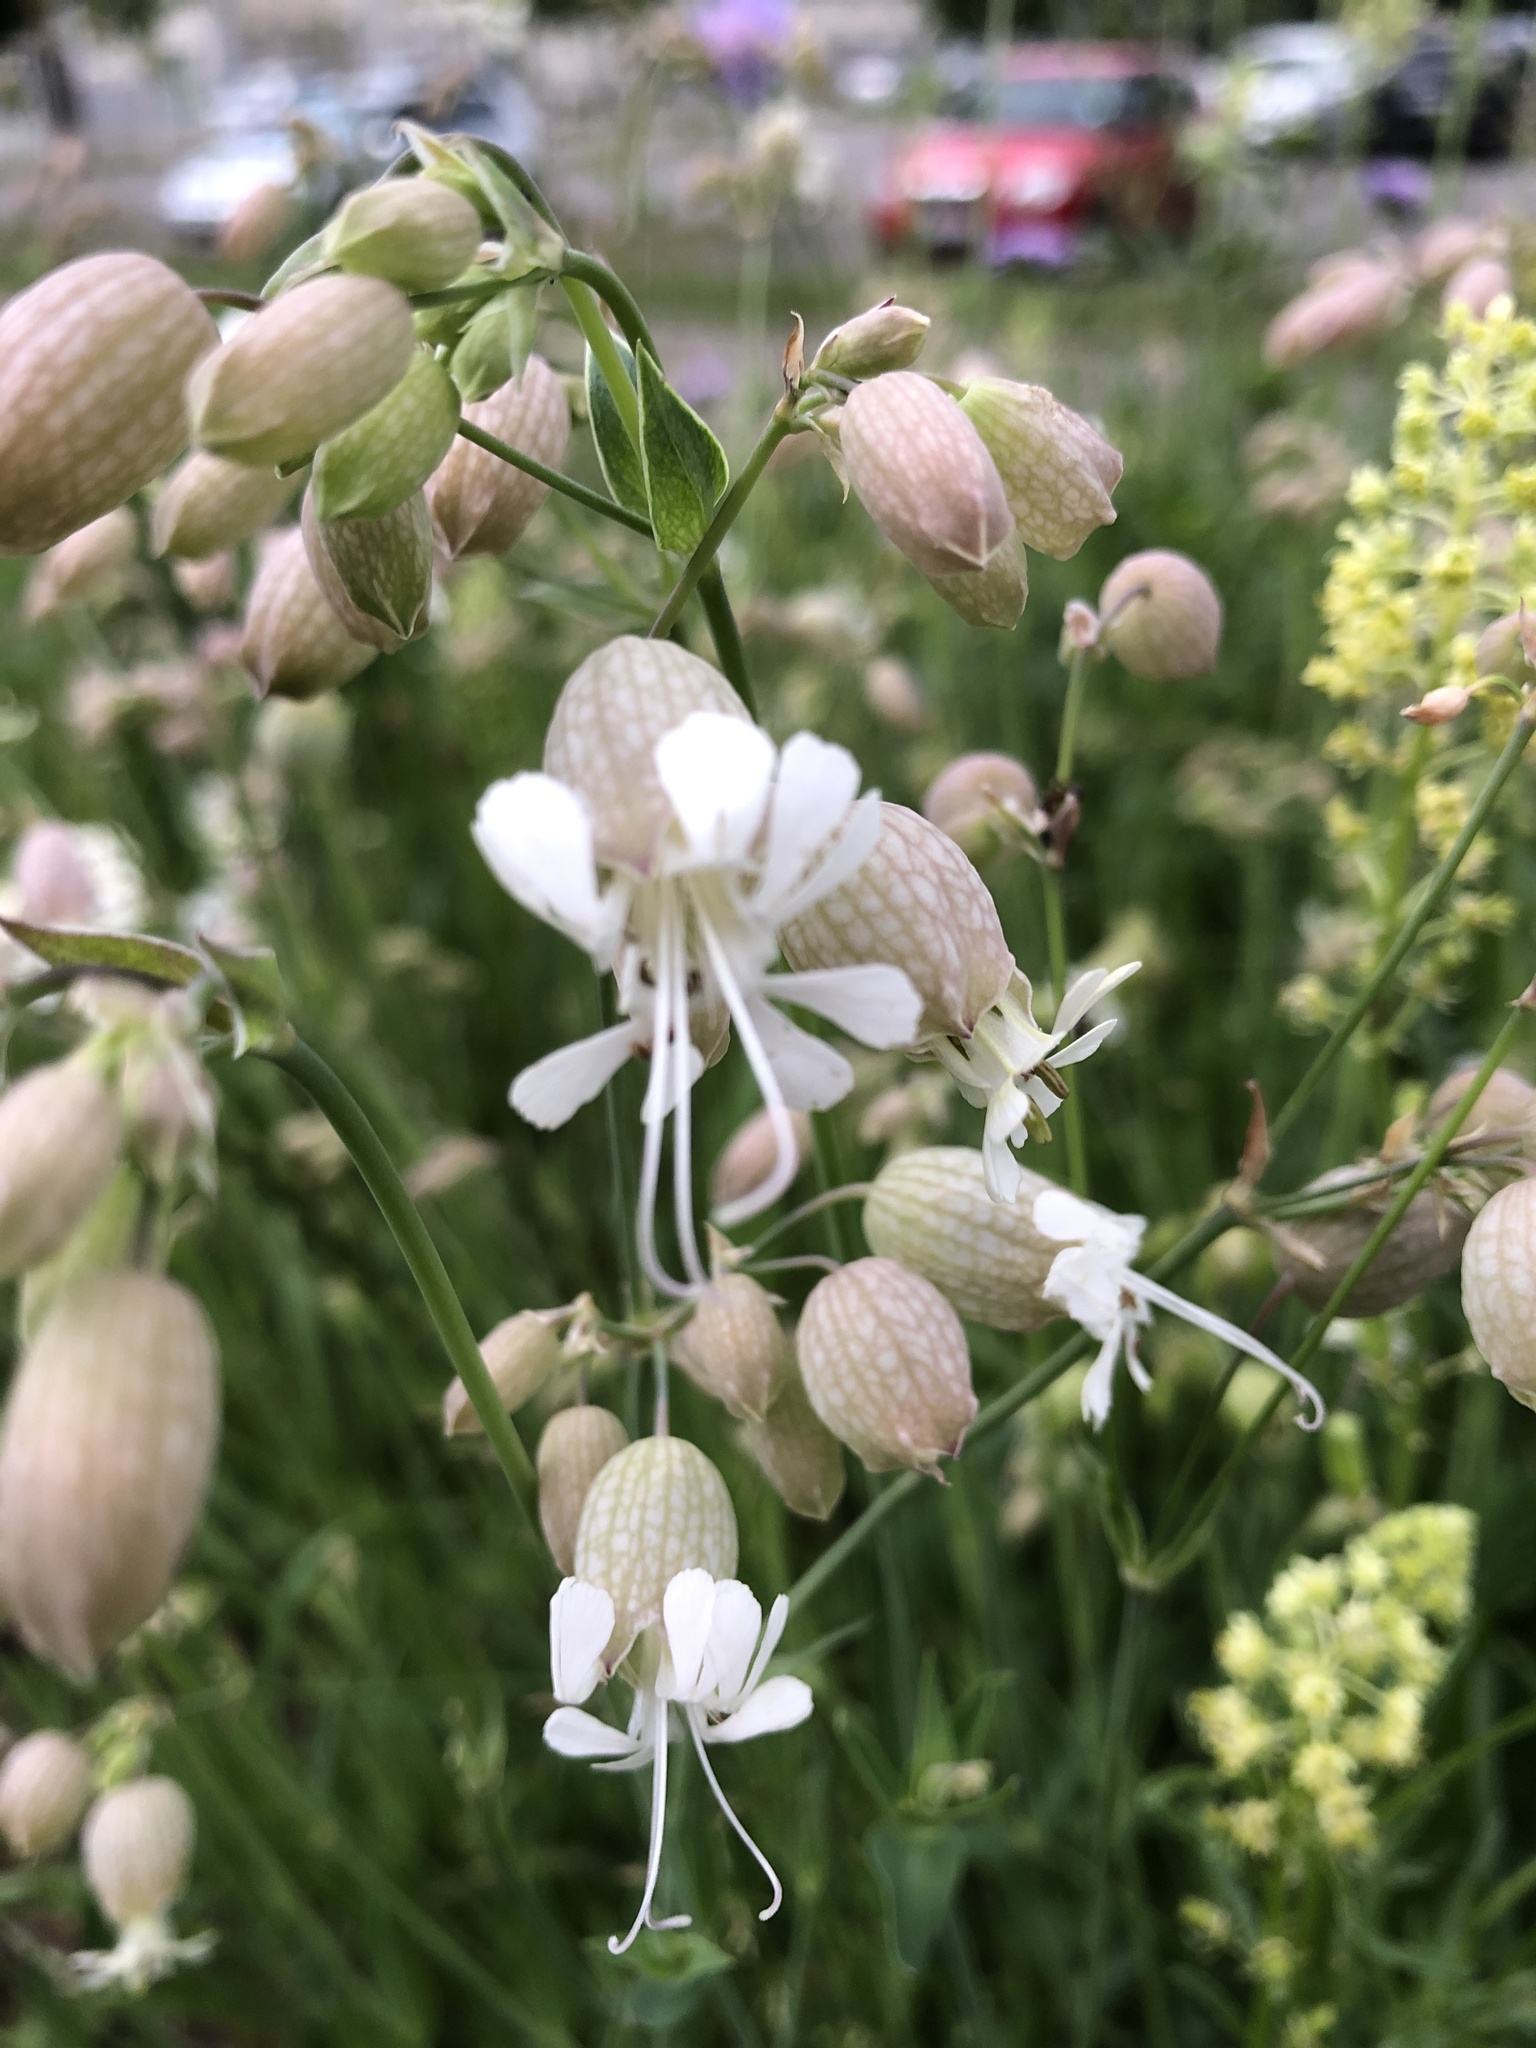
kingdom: Plantae
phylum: Tracheophyta
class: Magnoliopsida
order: Caryophyllales
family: Caryophyllaceae
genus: Silene
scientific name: Silene vulgaris
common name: Bladder campion
